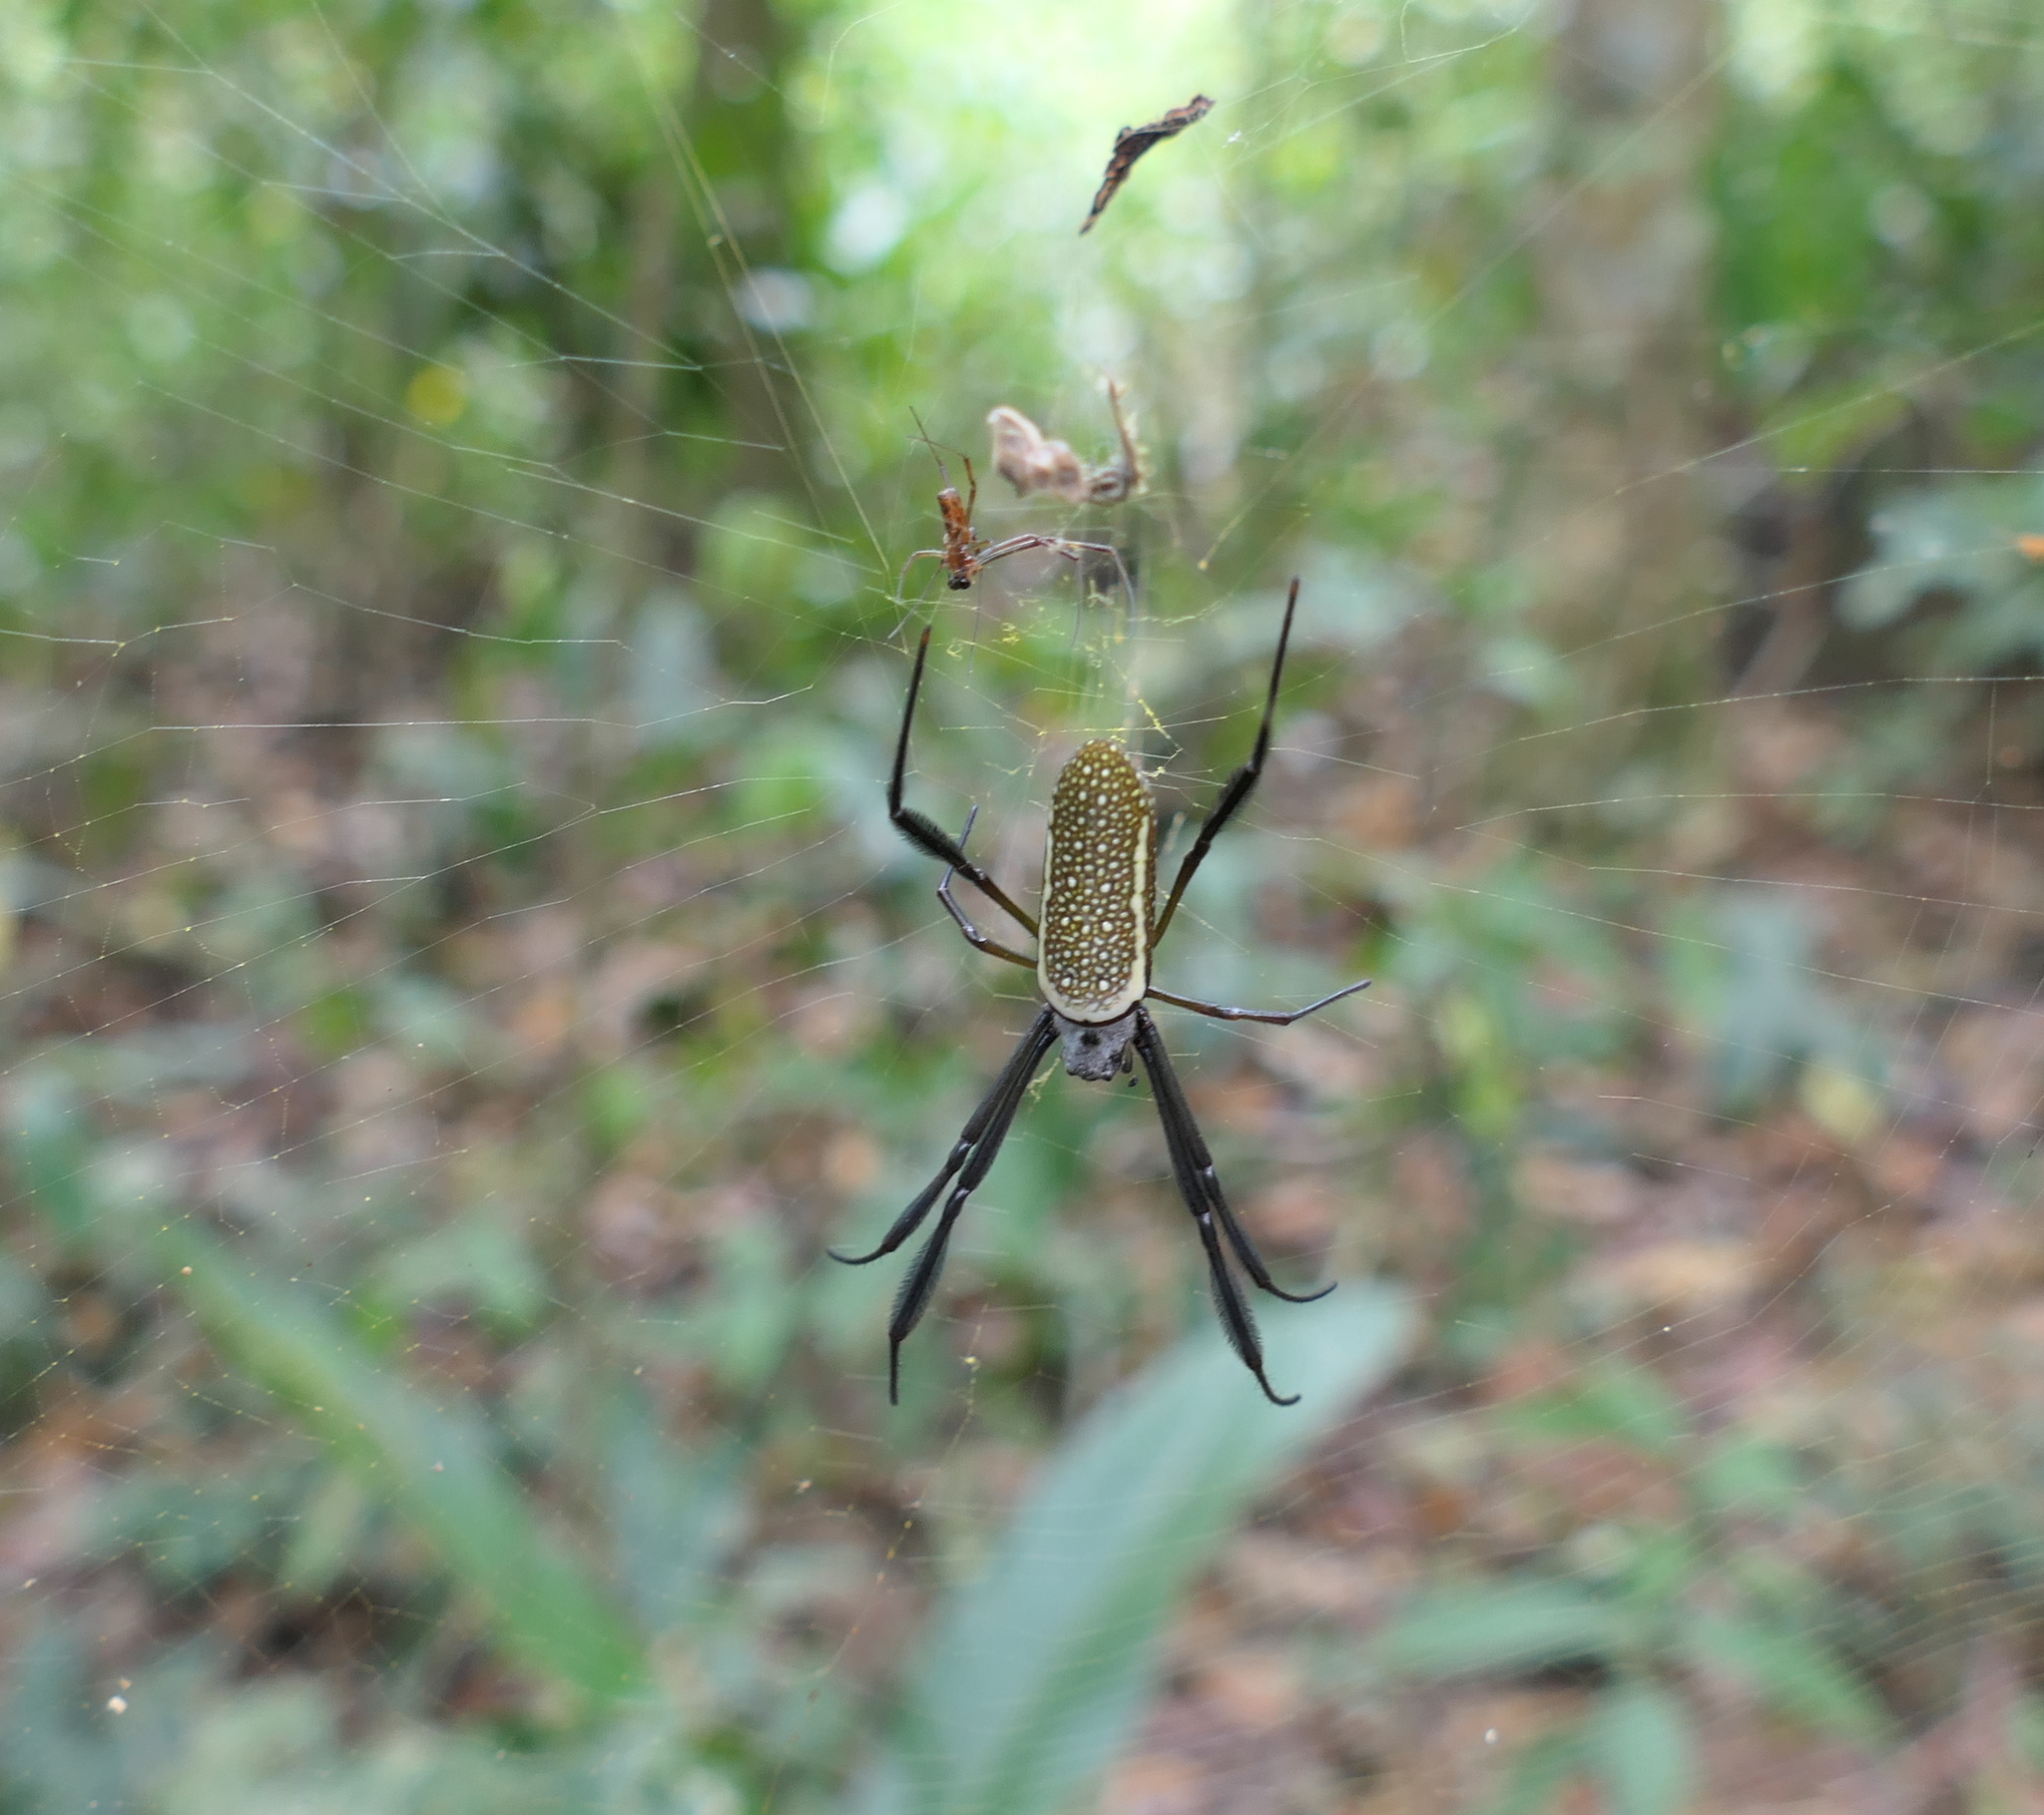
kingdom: Animalia
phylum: Arthropoda
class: Arachnida
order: Araneae
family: Araneidae
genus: Trichonephila
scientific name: Trichonephila clavipes
